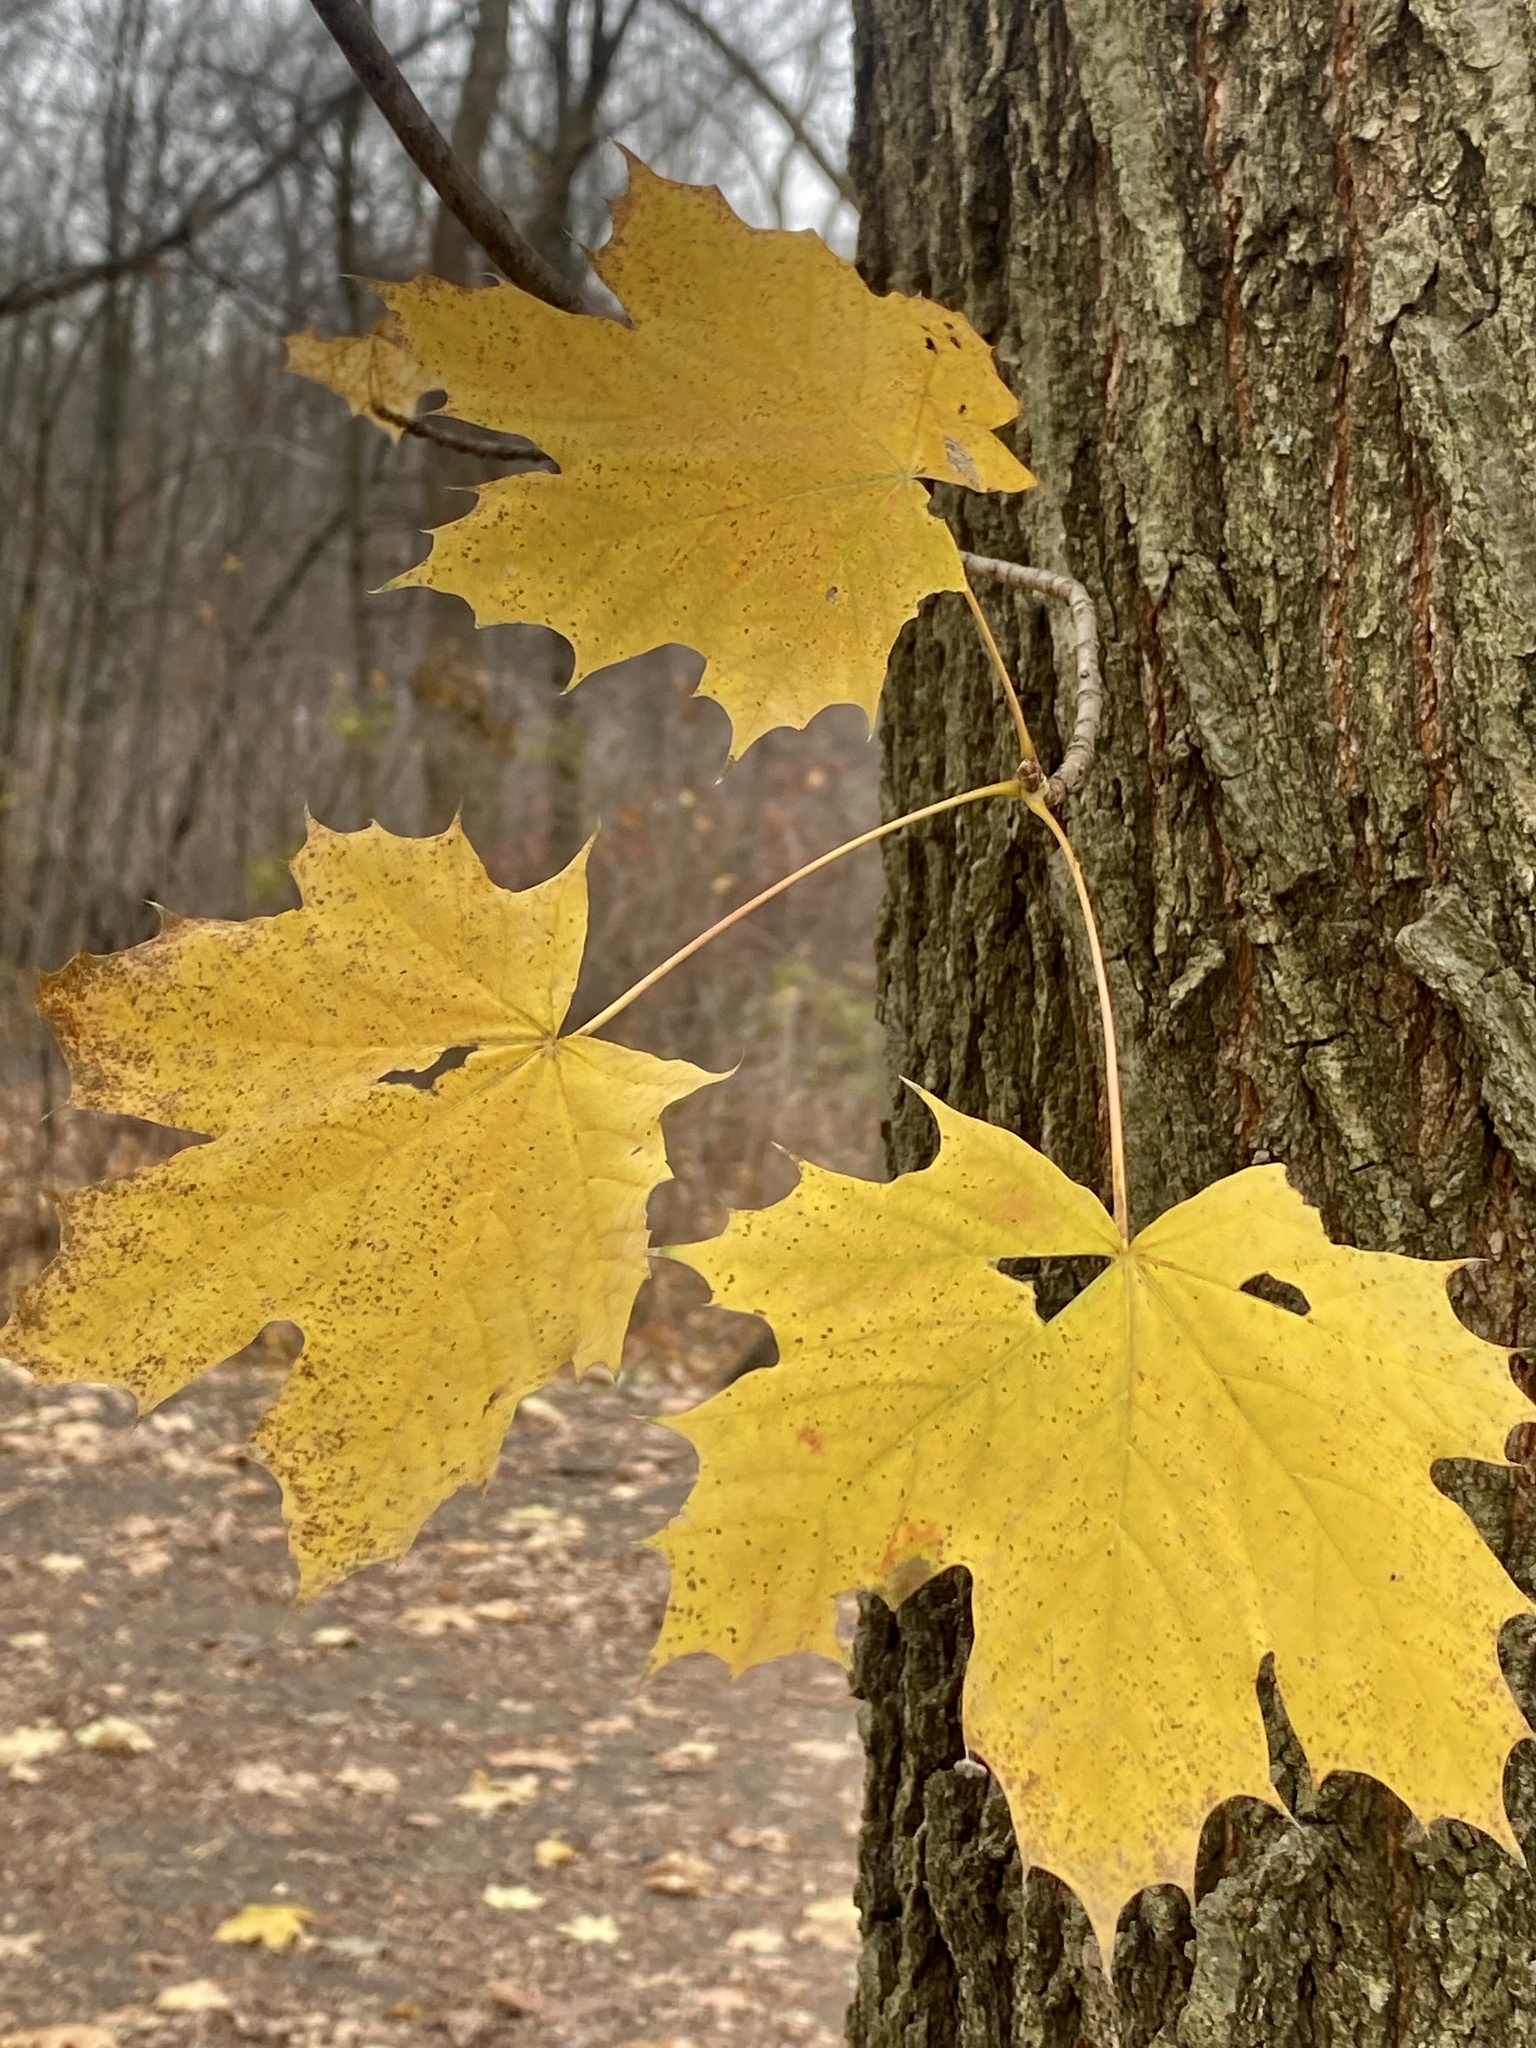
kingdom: Plantae
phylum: Tracheophyta
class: Magnoliopsida
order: Sapindales
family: Sapindaceae
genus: Acer
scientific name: Acer platanoides
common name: Norway maple
